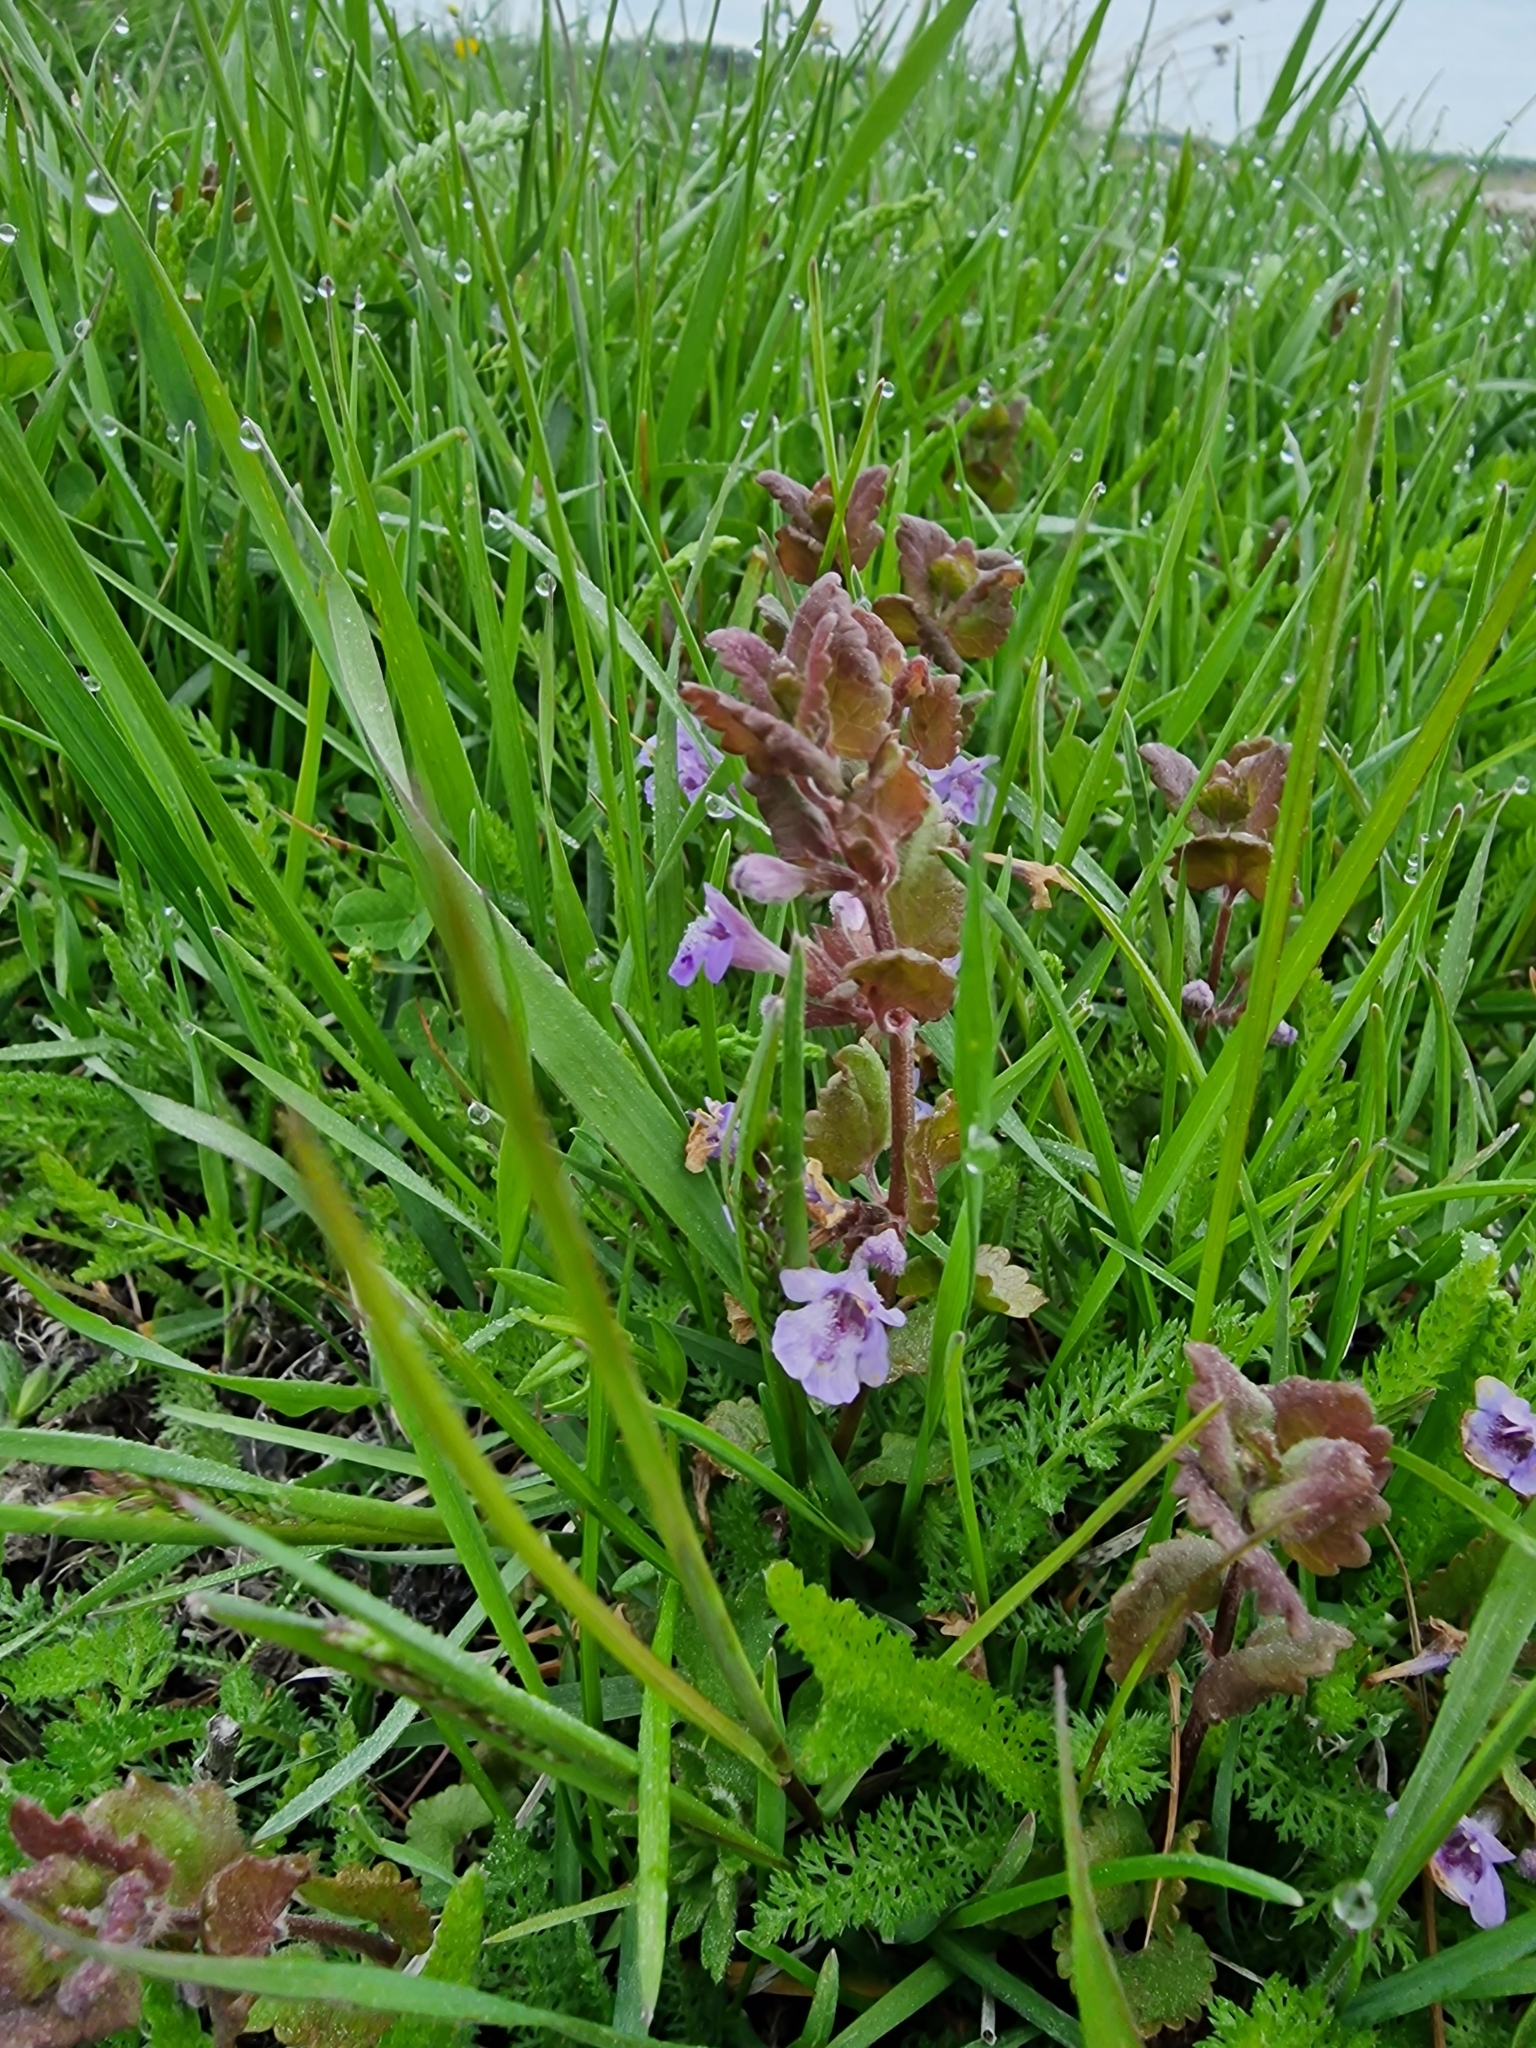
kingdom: Plantae
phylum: Tracheophyta
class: Magnoliopsida
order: Lamiales
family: Lamiaceae
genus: Glechoma
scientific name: Glechoma hederacea
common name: Ground ivy
